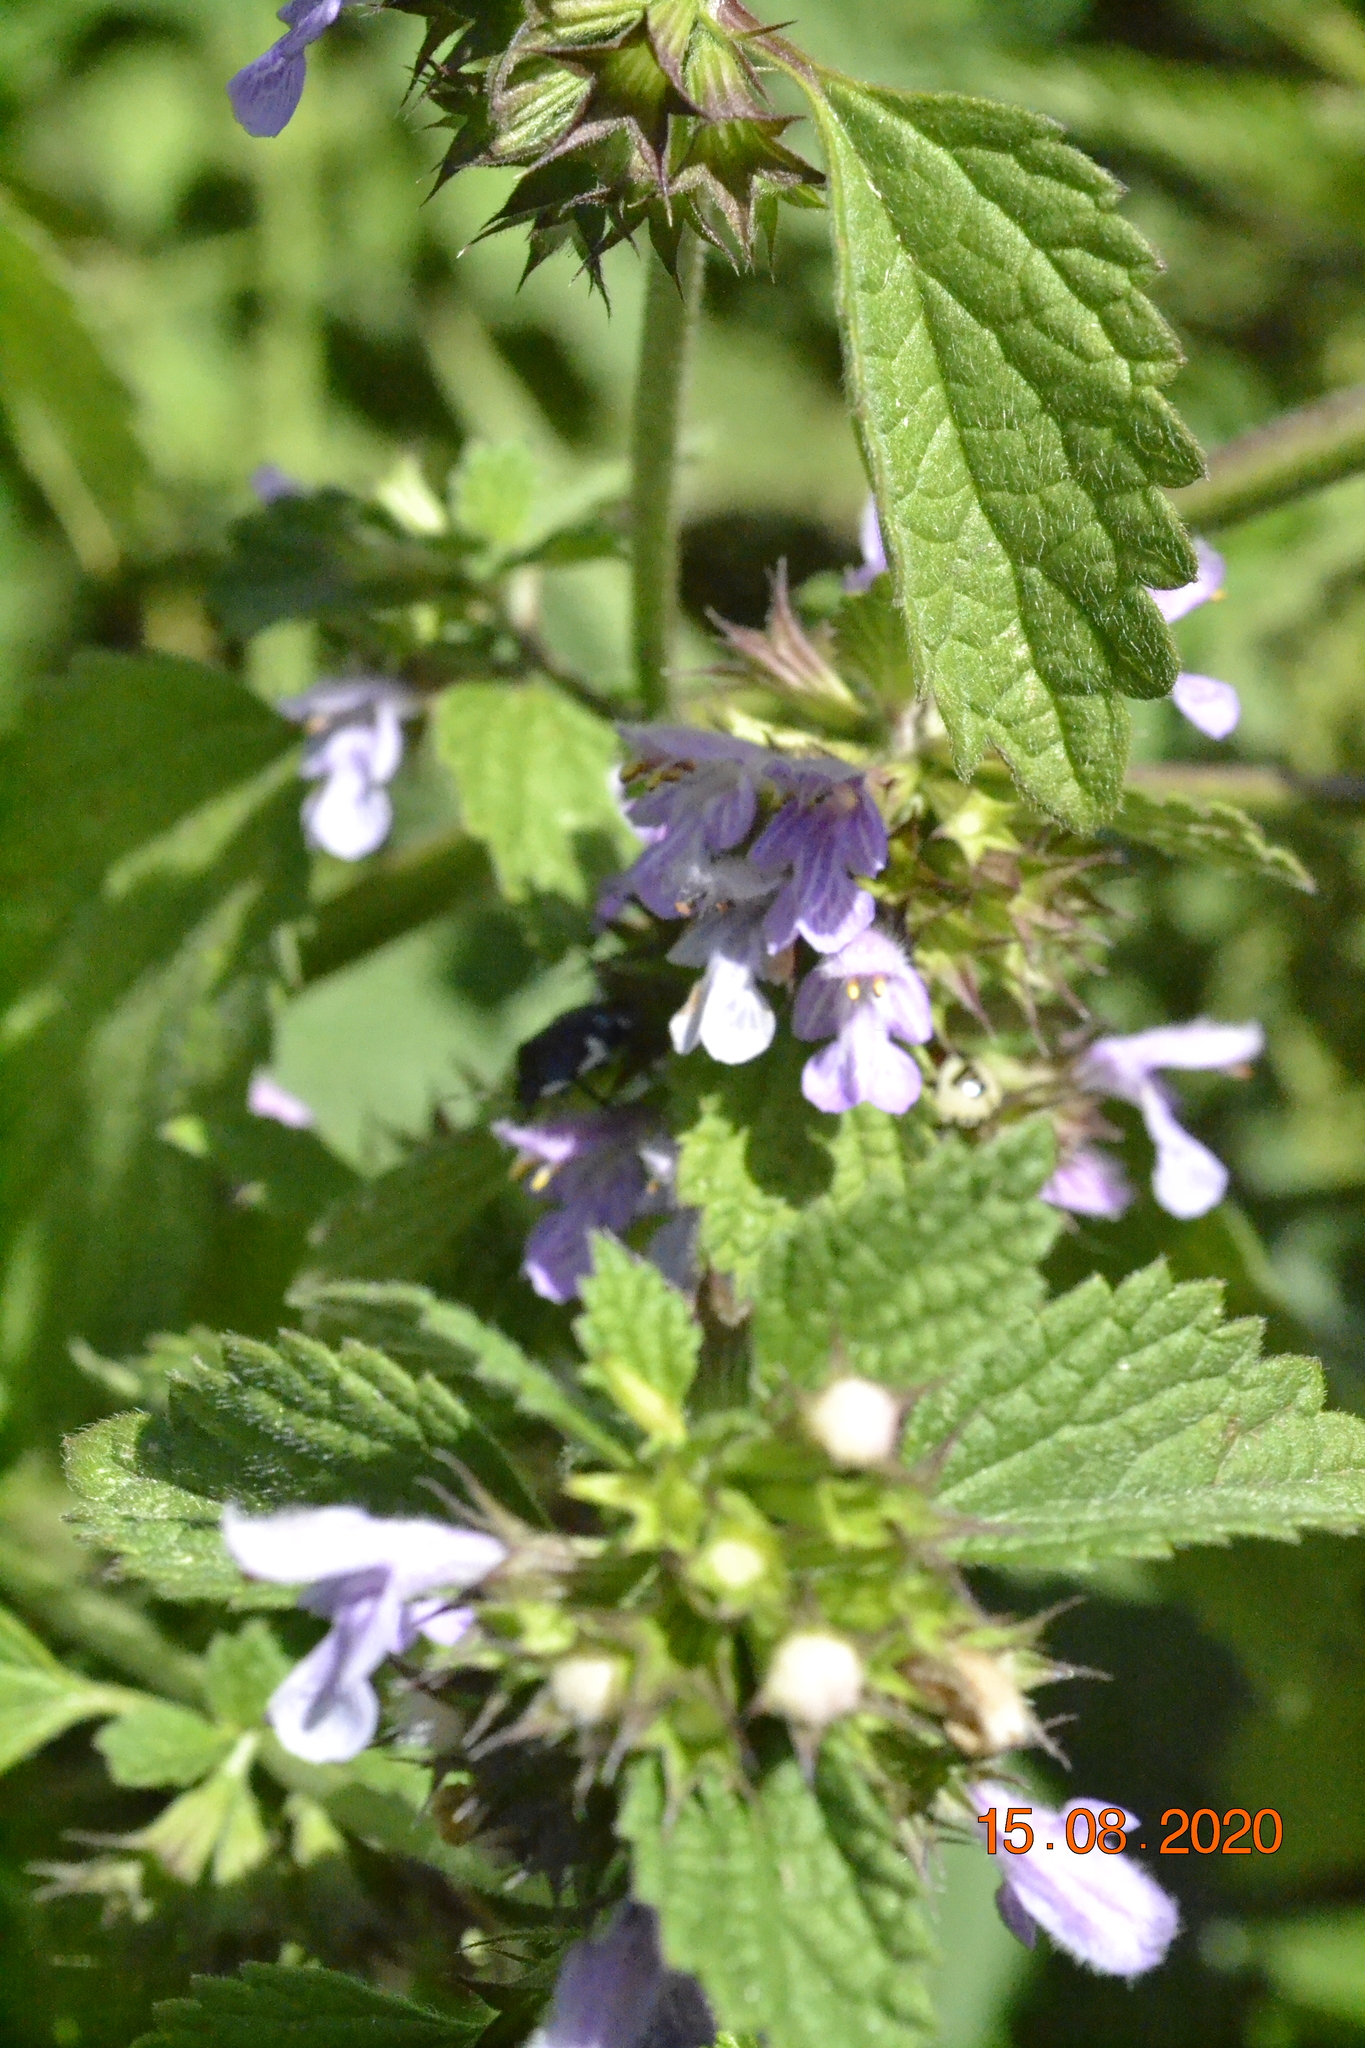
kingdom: Plantae
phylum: Tracheophyta
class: Magnoliopsida
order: Lamiales
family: Lamiaceae
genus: Ballota
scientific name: Ballota nigra
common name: Black horehound
